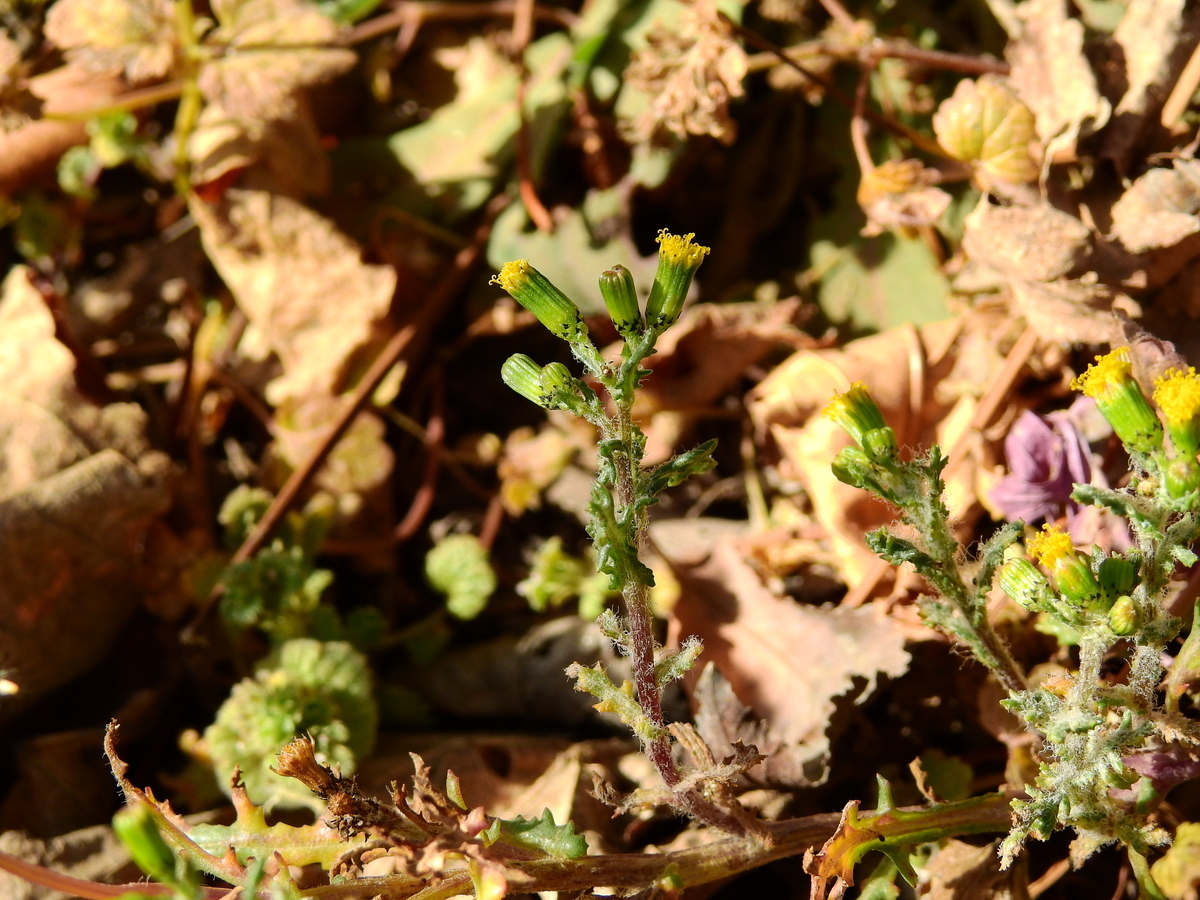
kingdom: Plantae
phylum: Tracheophyta
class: Magnoliopsida
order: Asterales
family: Asteraceae
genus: Senecio
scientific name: Senecio vulgaris
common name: Old-man-in-the-spring
